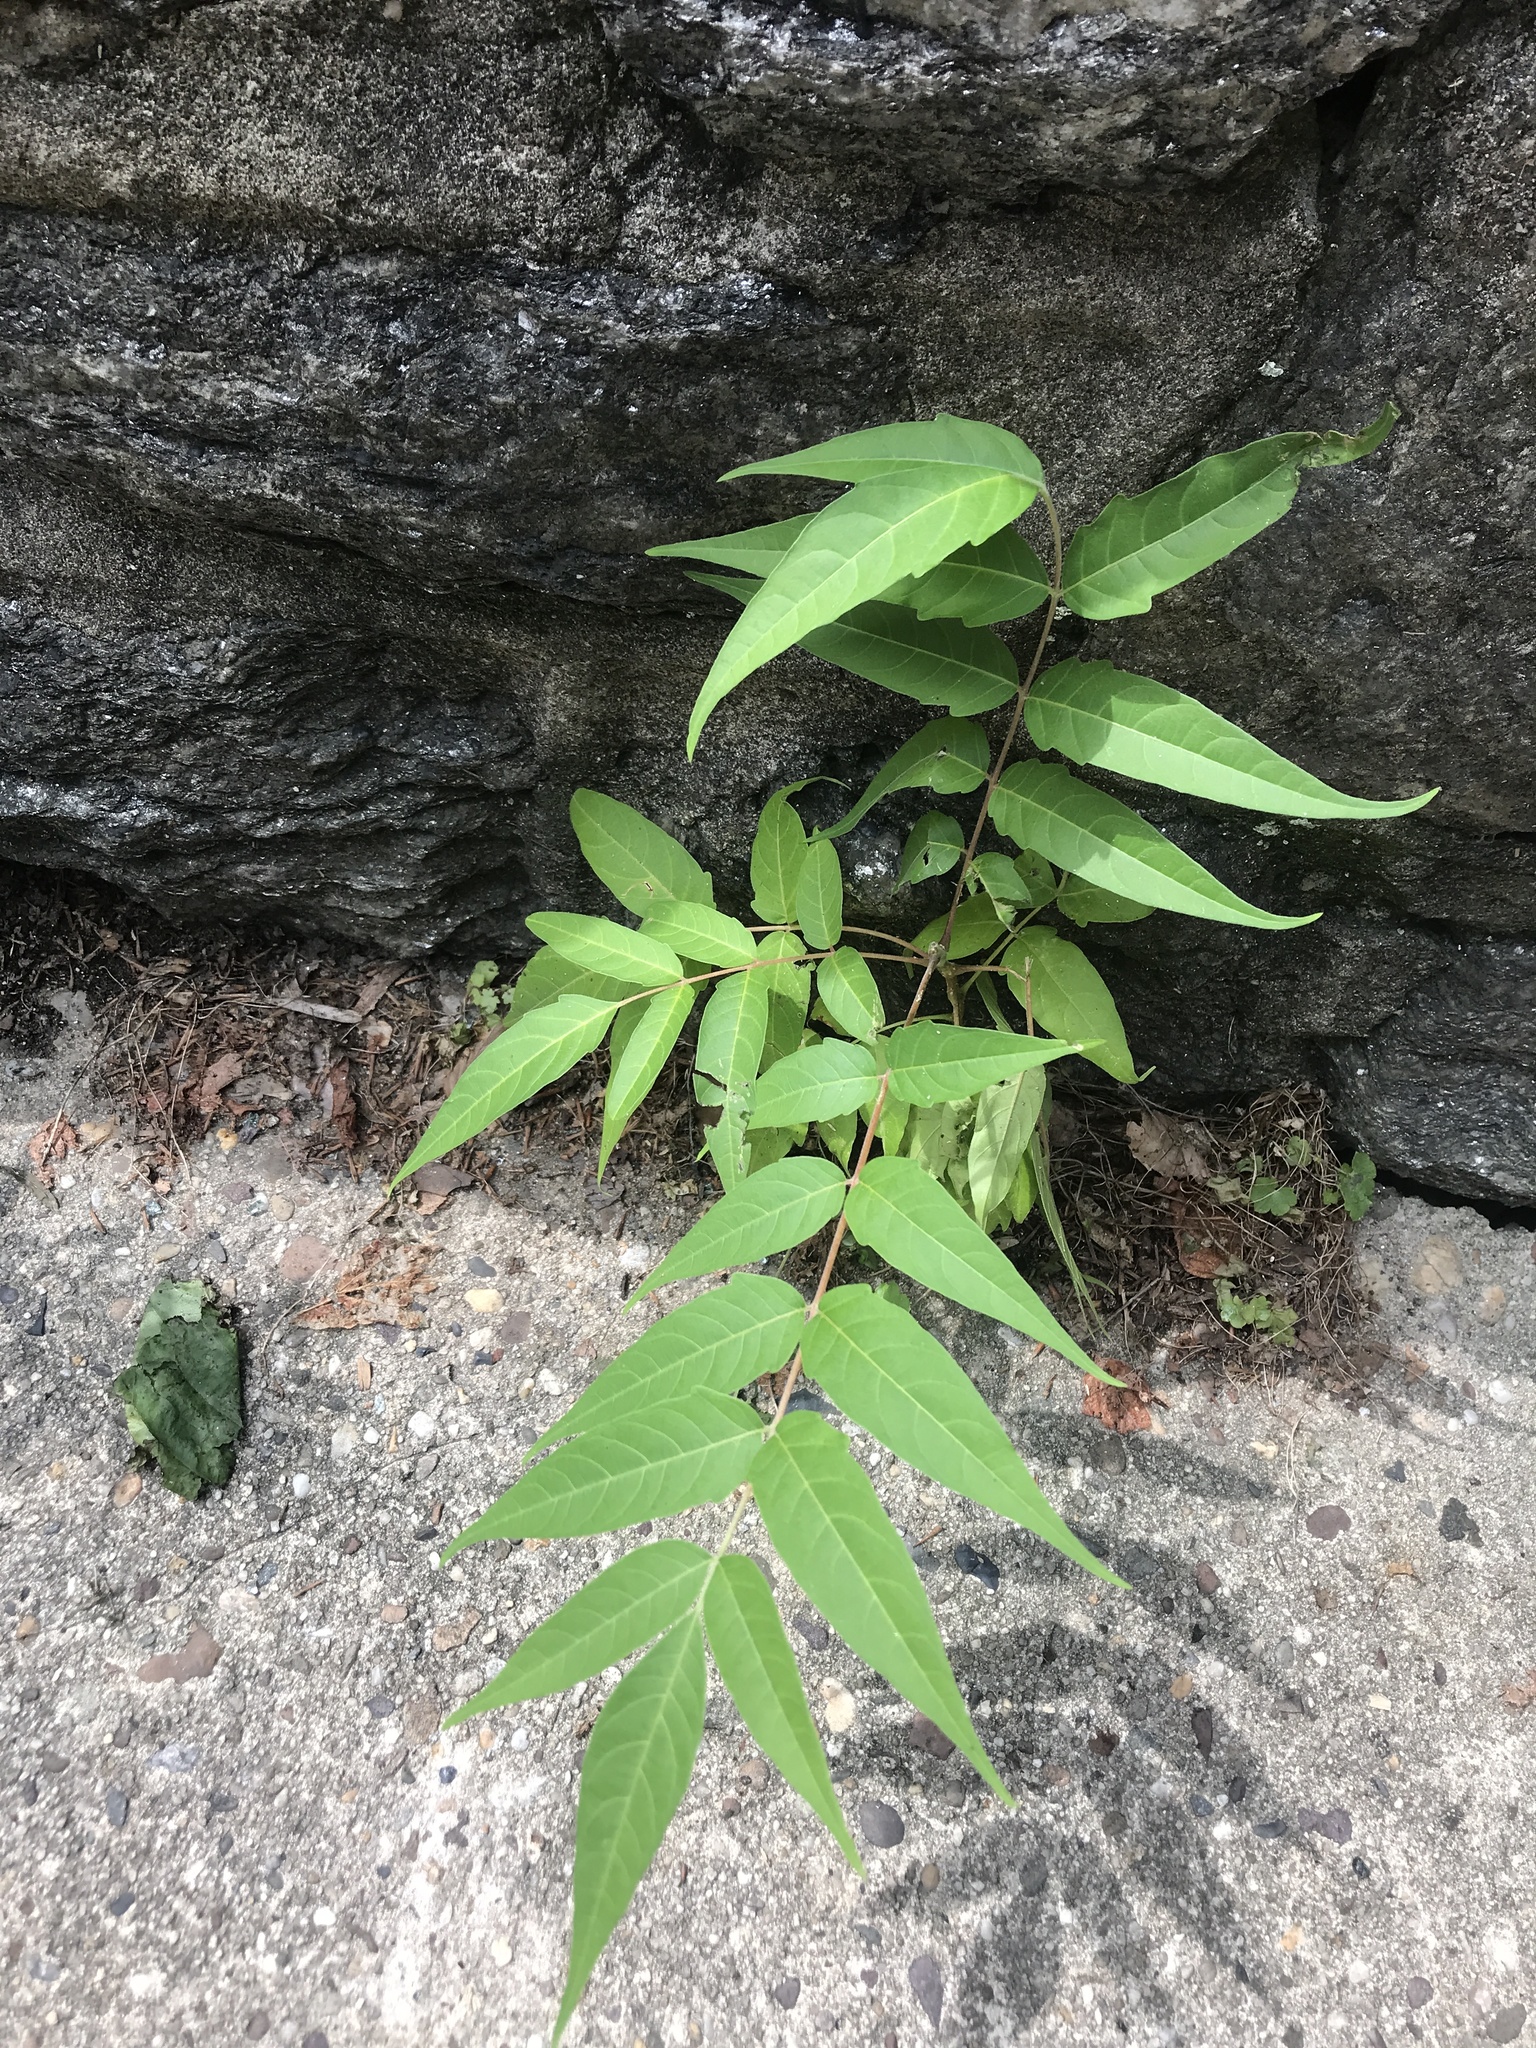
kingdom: Plantae
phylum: Tracheophyta
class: Magnoliopsida
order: Sapindales
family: Simaroubaceae
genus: Ailanthus
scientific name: Ailanthus altissima
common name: Tree-of-heaven
